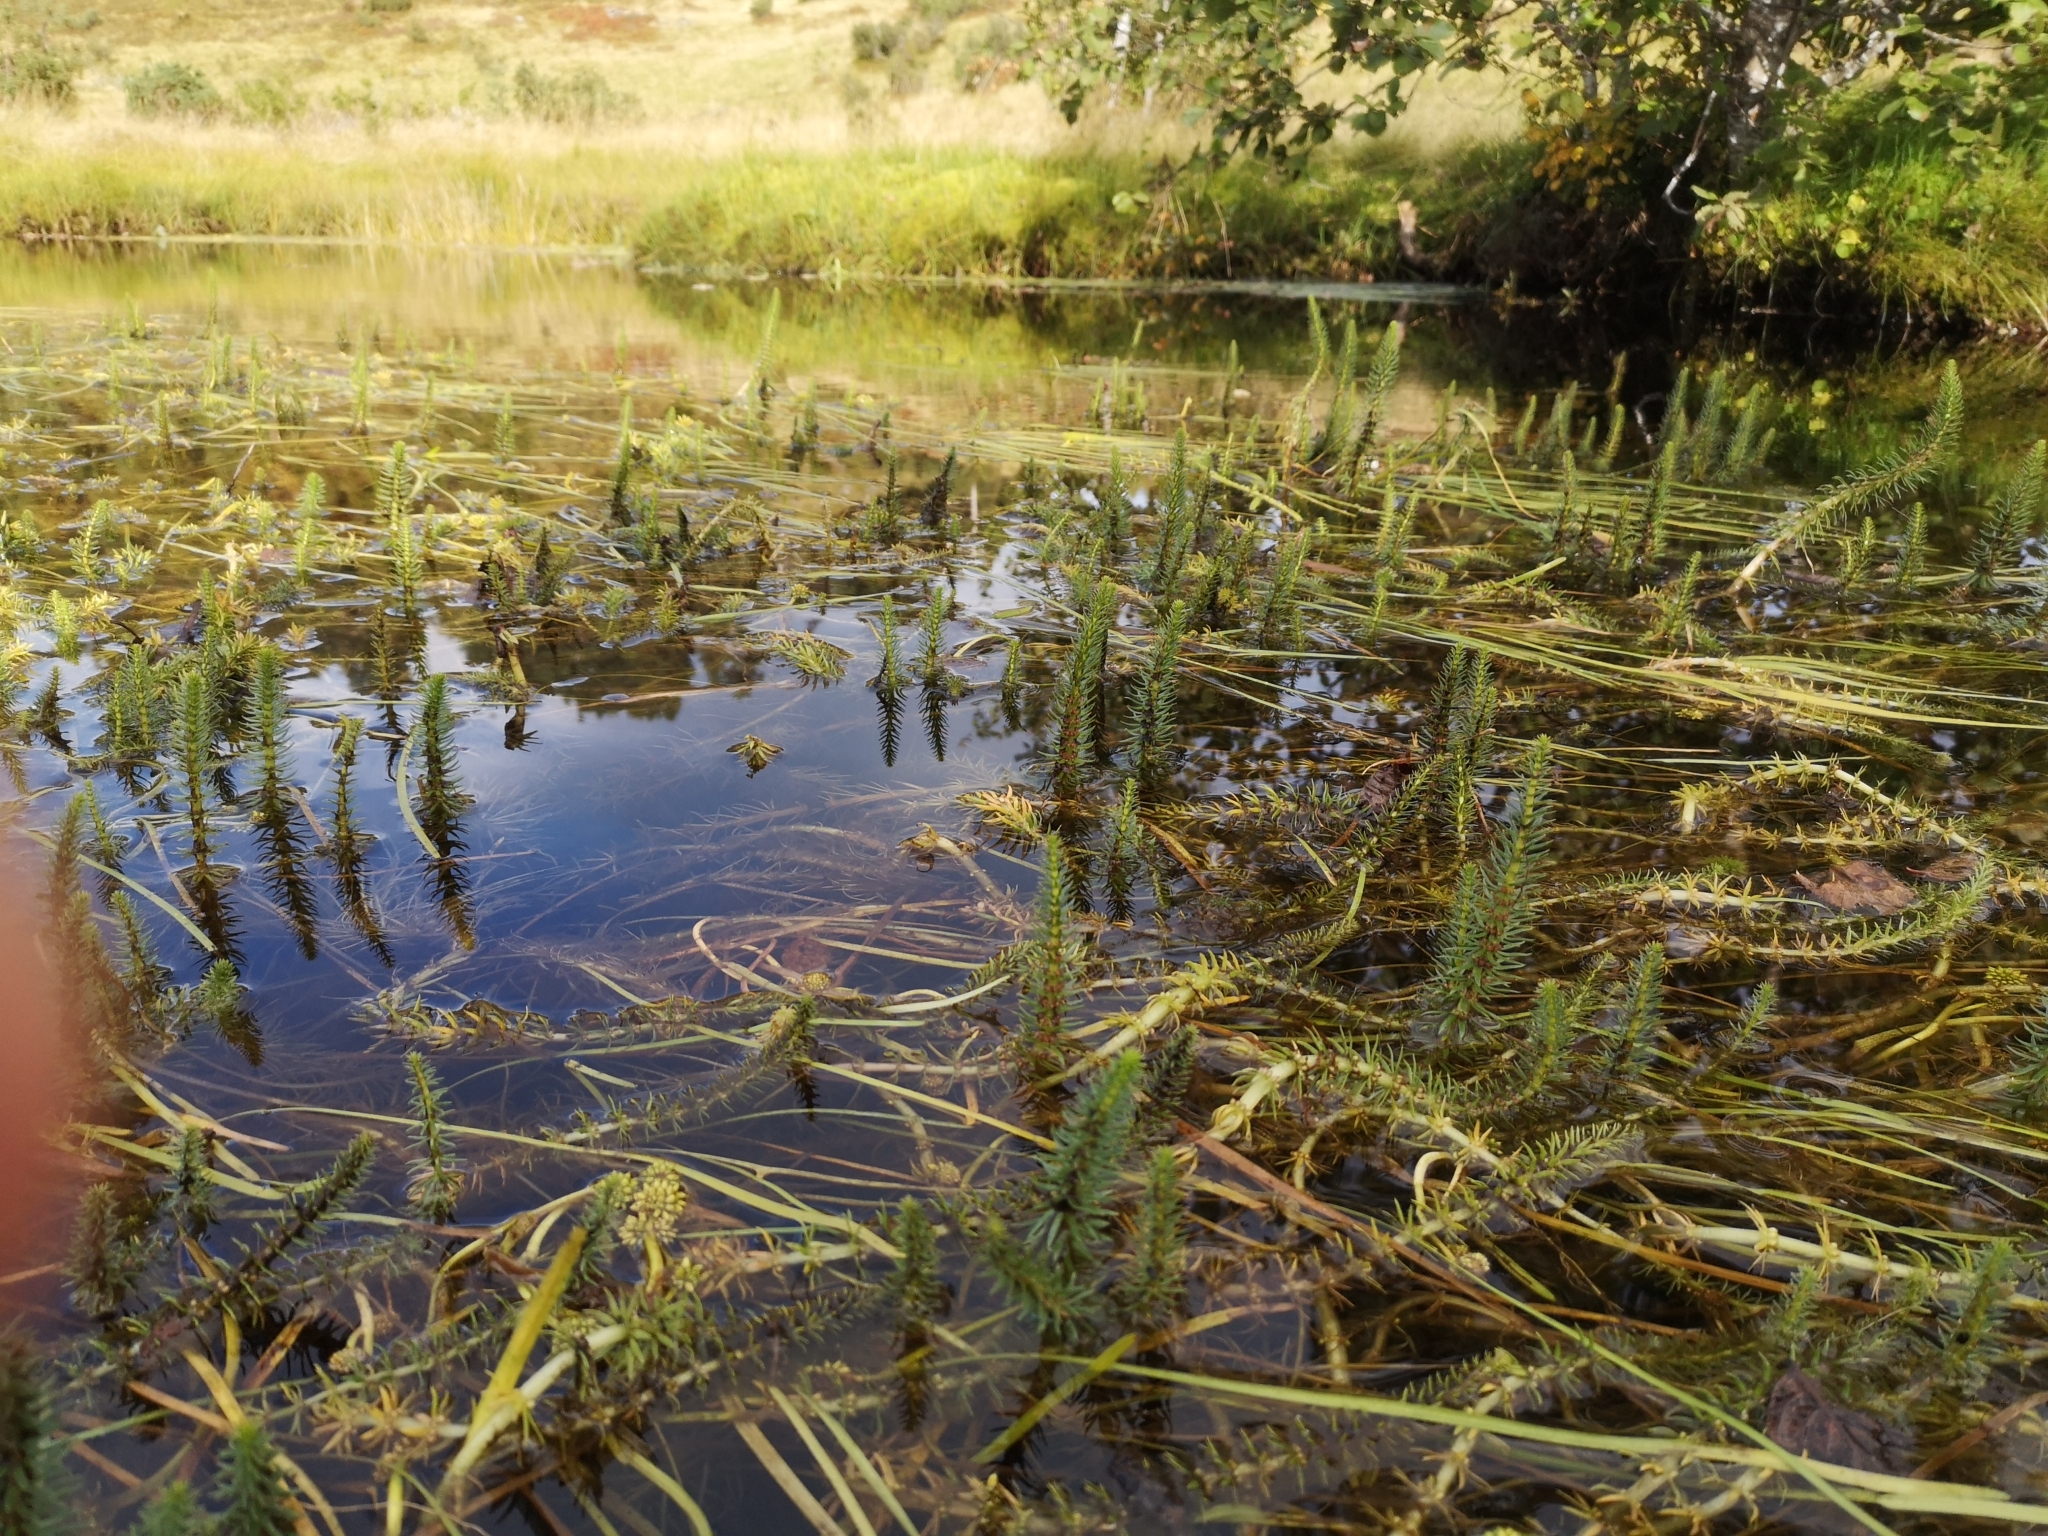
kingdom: Plantae
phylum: Tracheophyta
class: Magnoliopsida
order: Lamiales
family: Plantaginaceae
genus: Hippuris
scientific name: Hippuris vulgaris
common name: Mare's-tail
